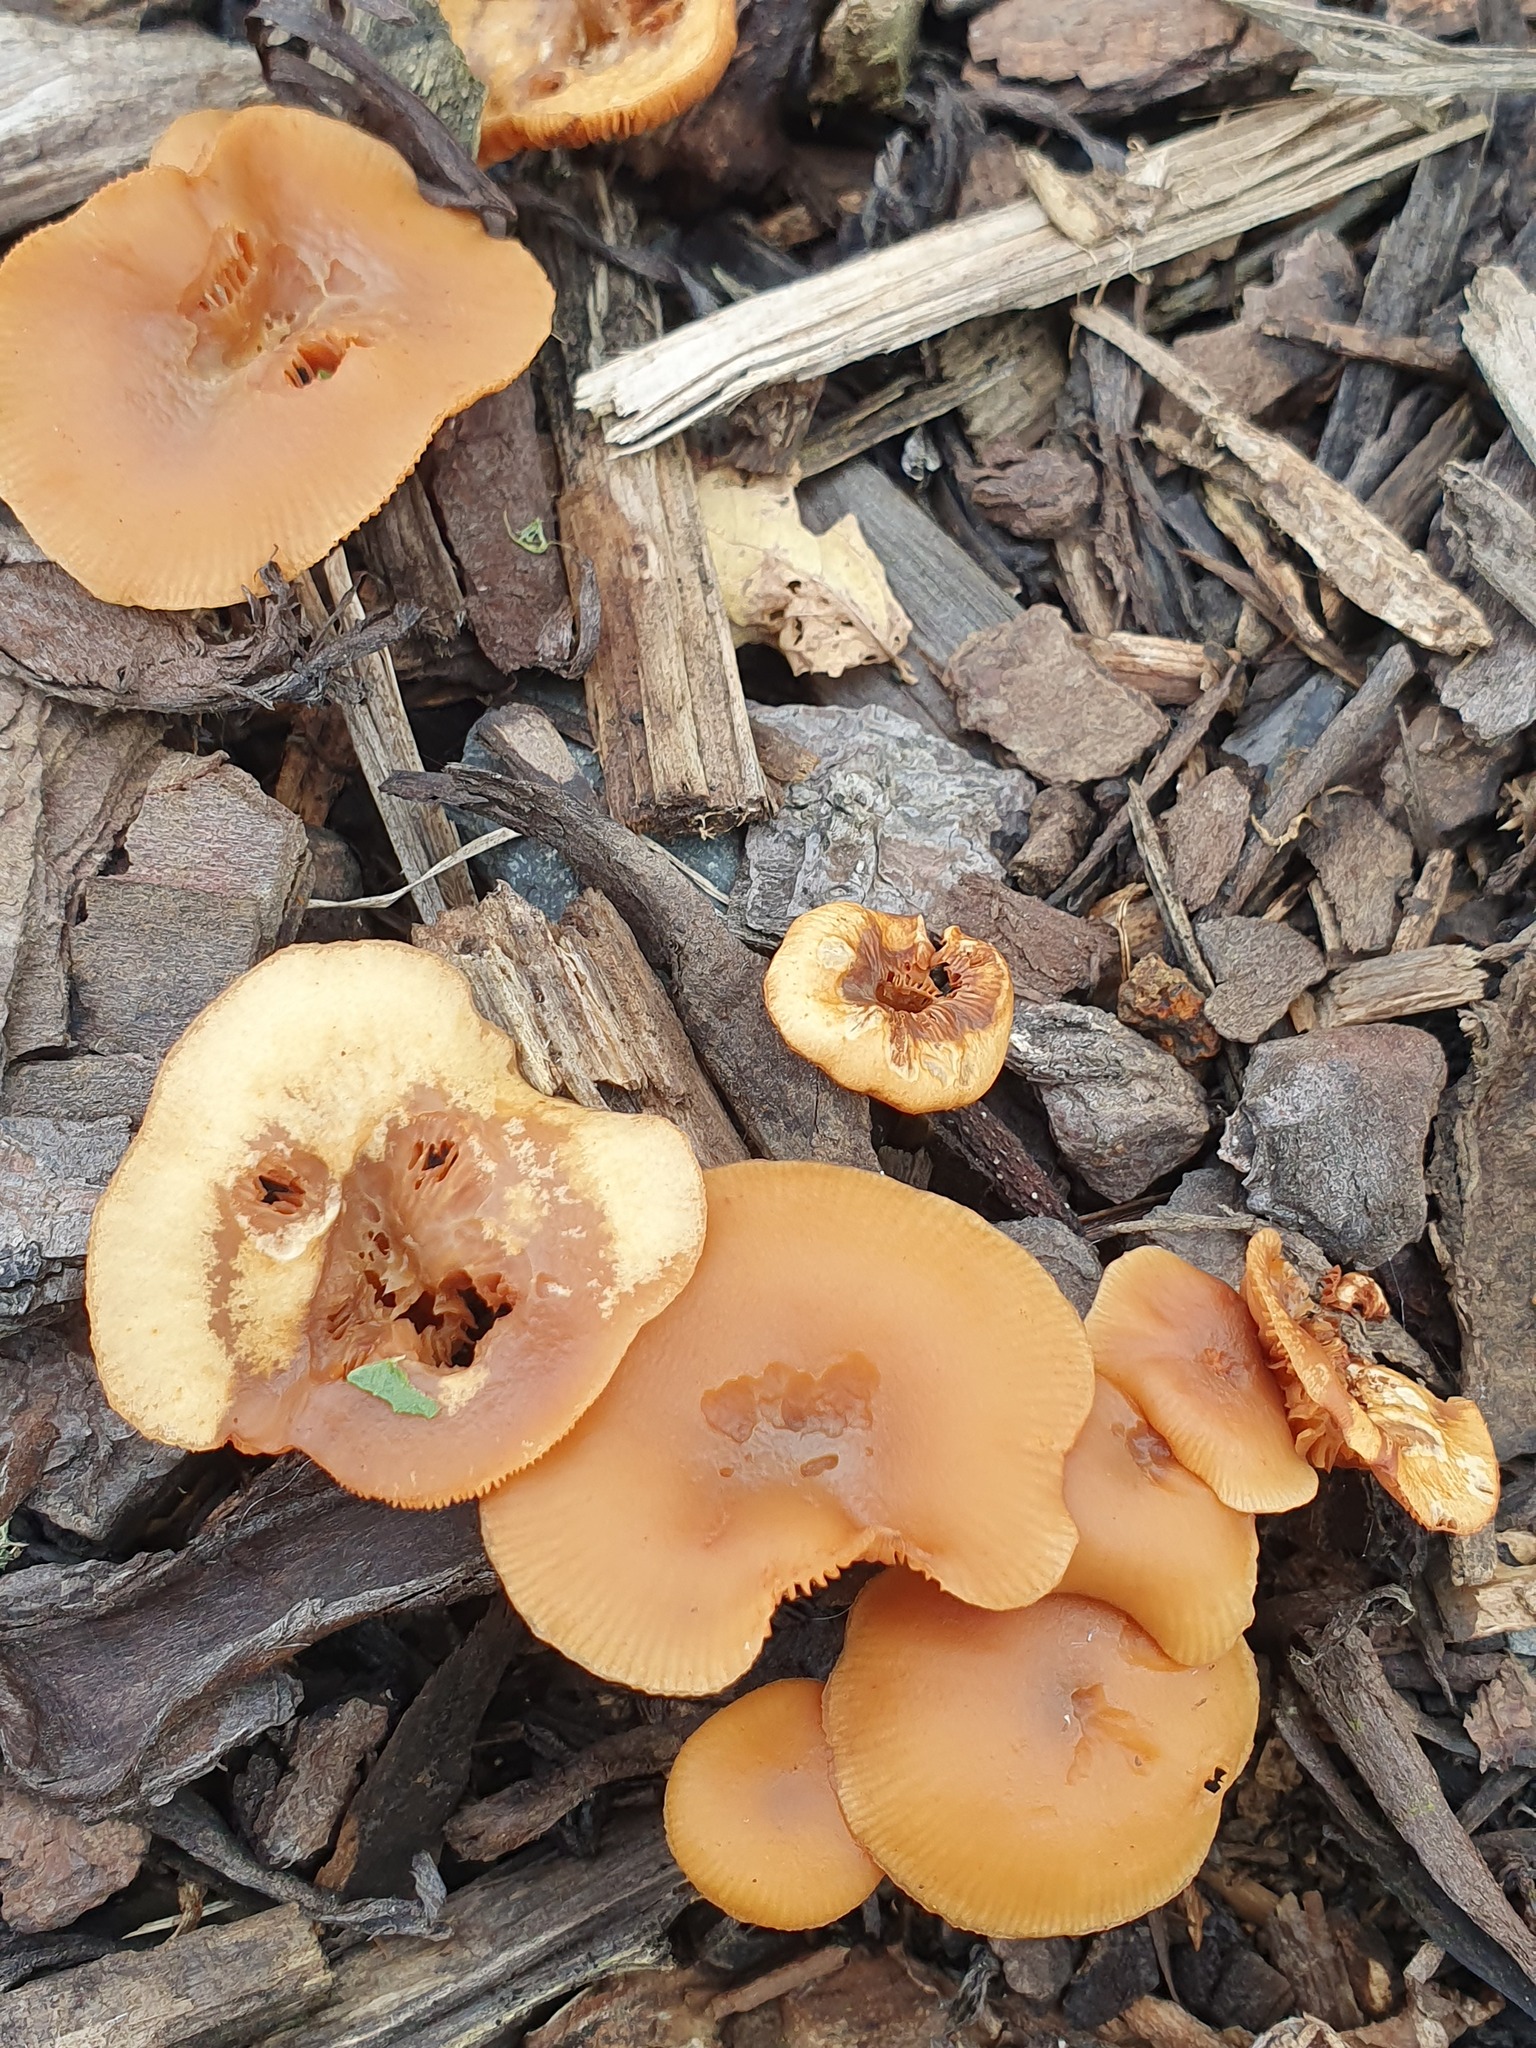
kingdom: Fungi
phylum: Basidiomycota
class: Agaricomycetes
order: Agaricales
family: Tubariaceae
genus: Tubaria
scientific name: Tubaria furfuracea
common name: Scurfy twiglet
